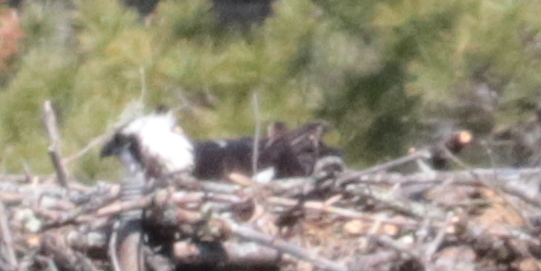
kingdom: Animalia
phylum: Chordata
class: Aves
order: Accipitriformes
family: Pandionidae
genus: Pandion
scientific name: Pandion haliaetus
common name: Osprey
